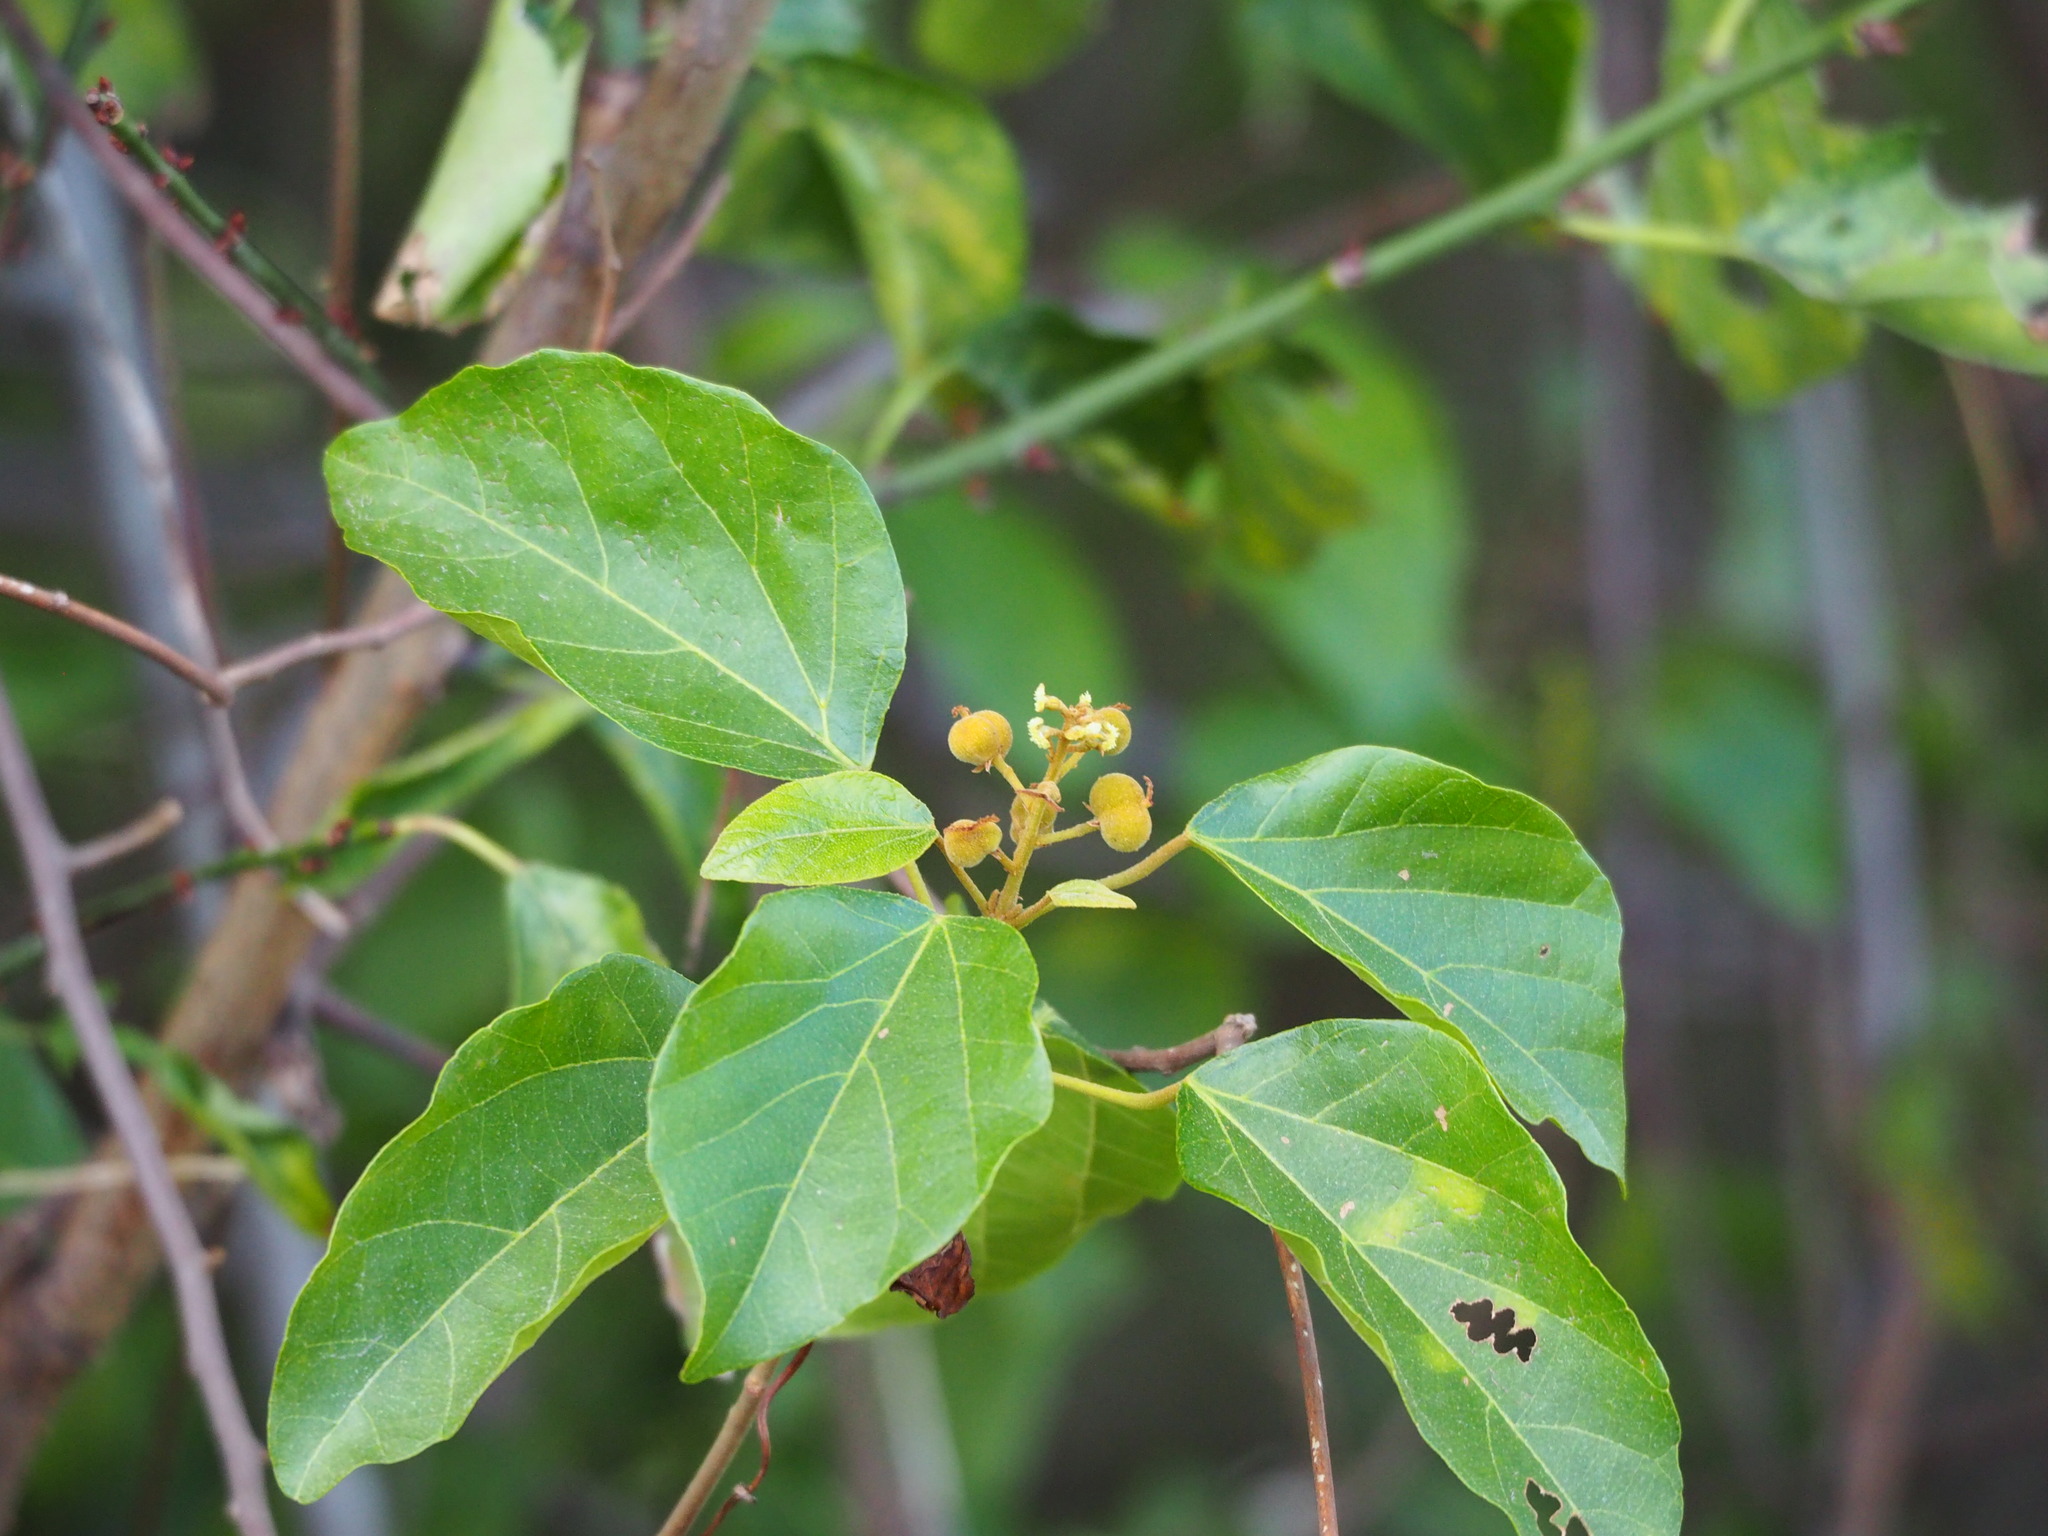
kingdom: Plantae
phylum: Tracheophyta
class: Magnoliopsida
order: Malpighiales
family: Euphorbiaceae
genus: Mallotus
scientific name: Mallotus repandus
